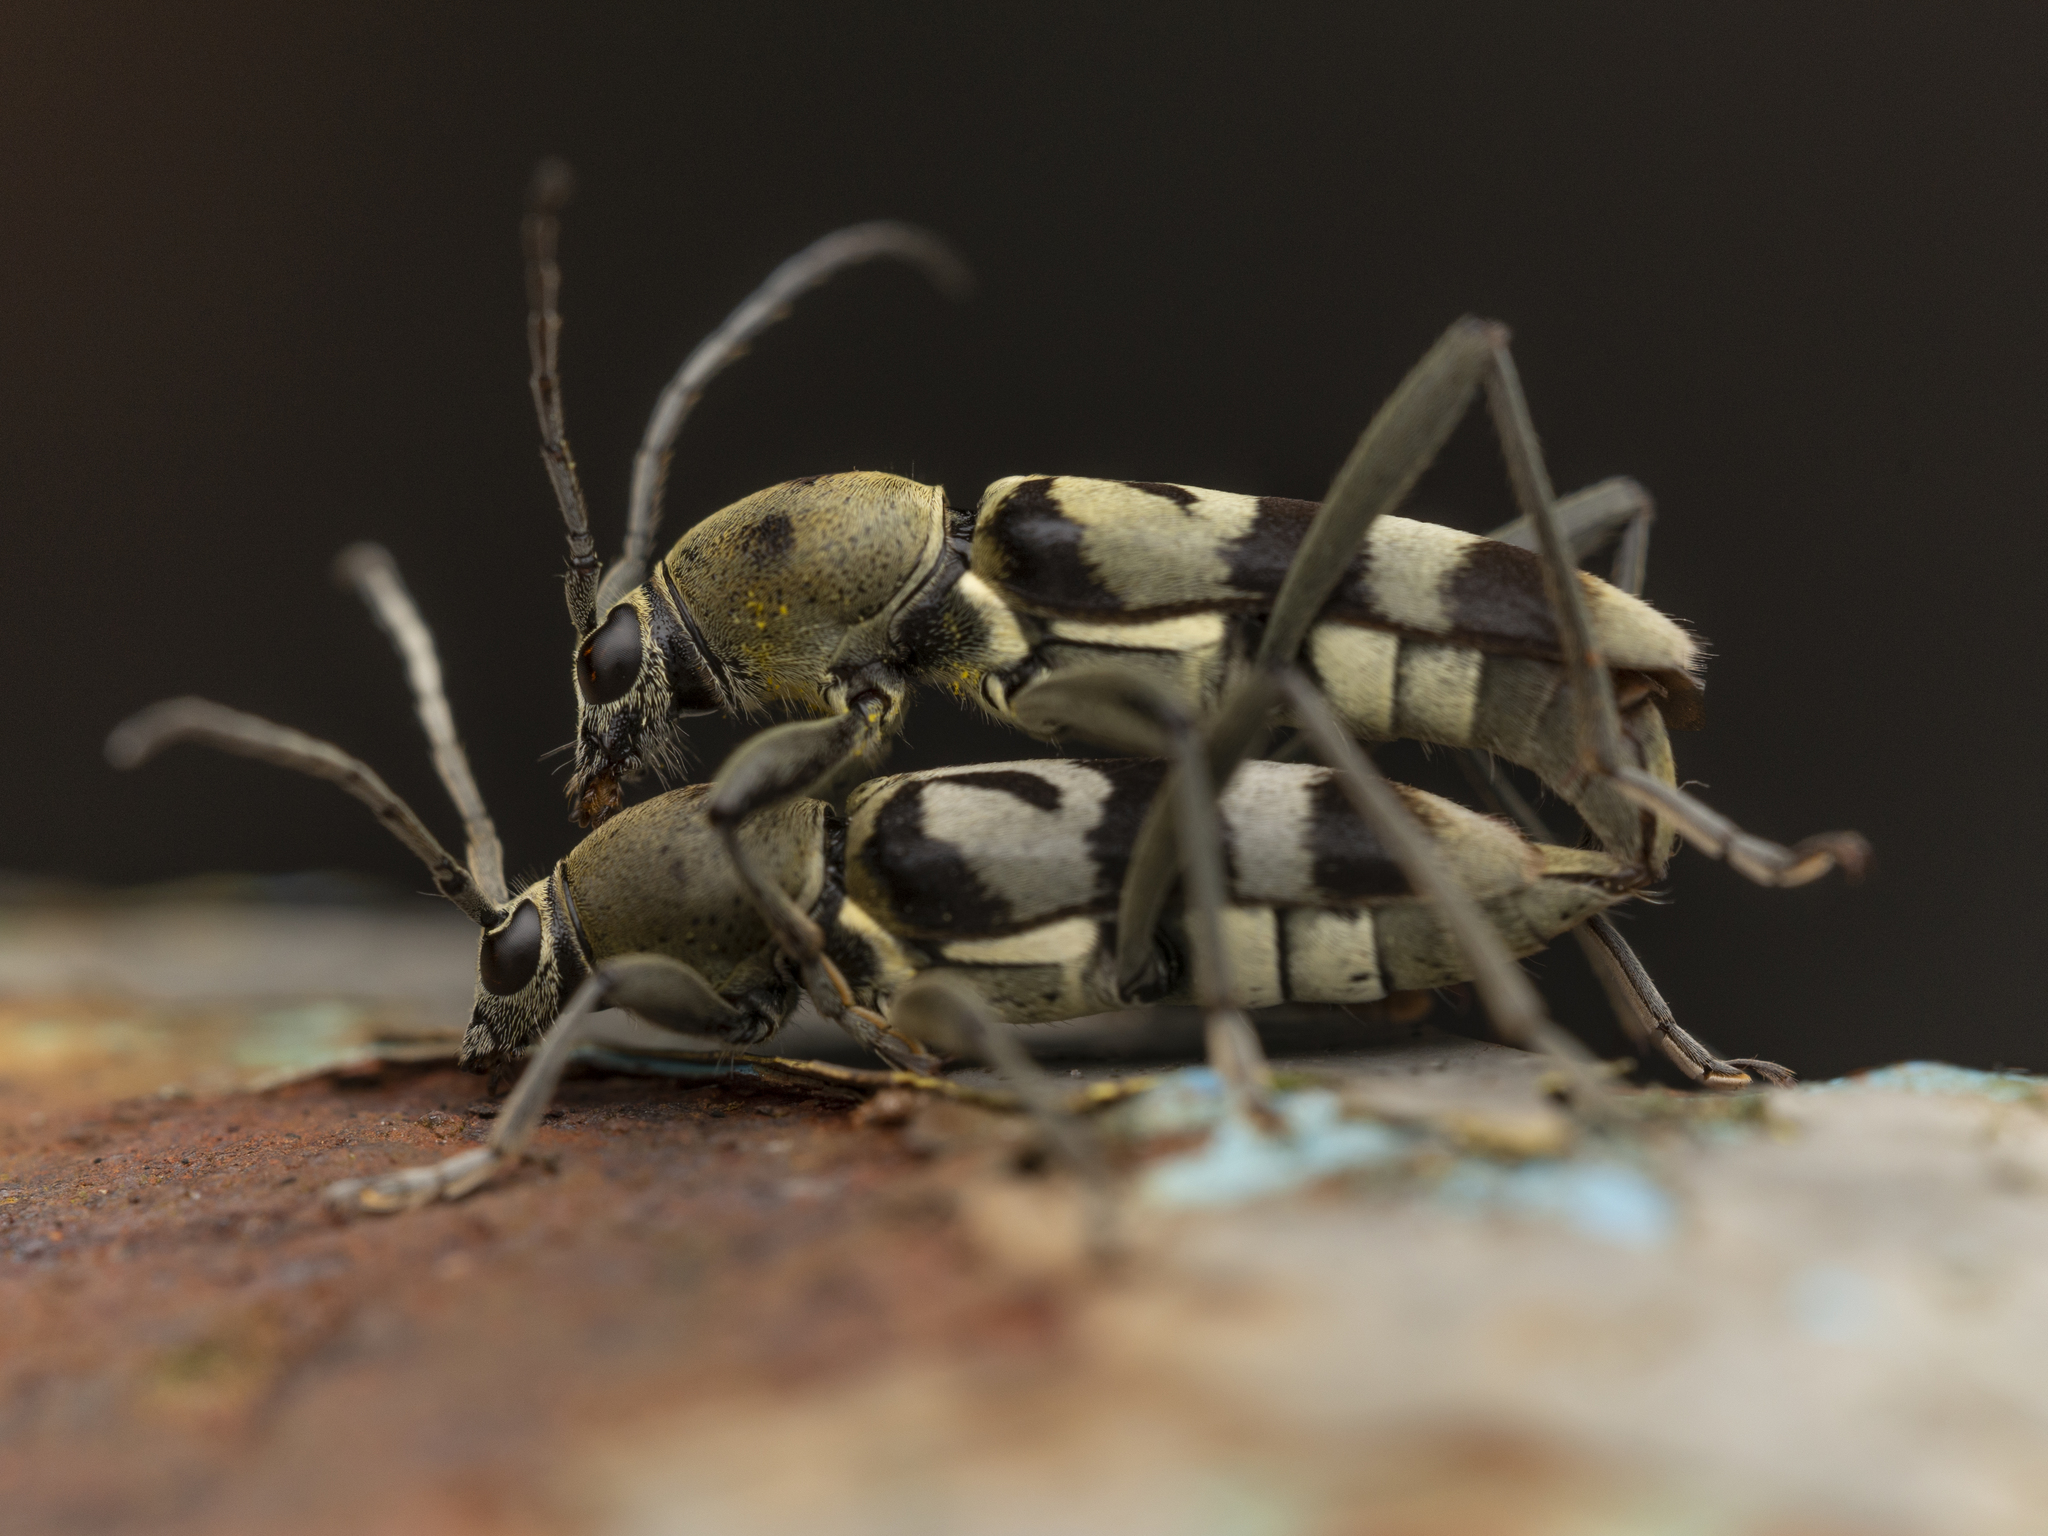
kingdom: Animalia
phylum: Arthropoda
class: Insecta
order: Coleoptera
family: Cerambycidae
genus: Chlorophorus
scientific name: Chlorophorus signaticollis
